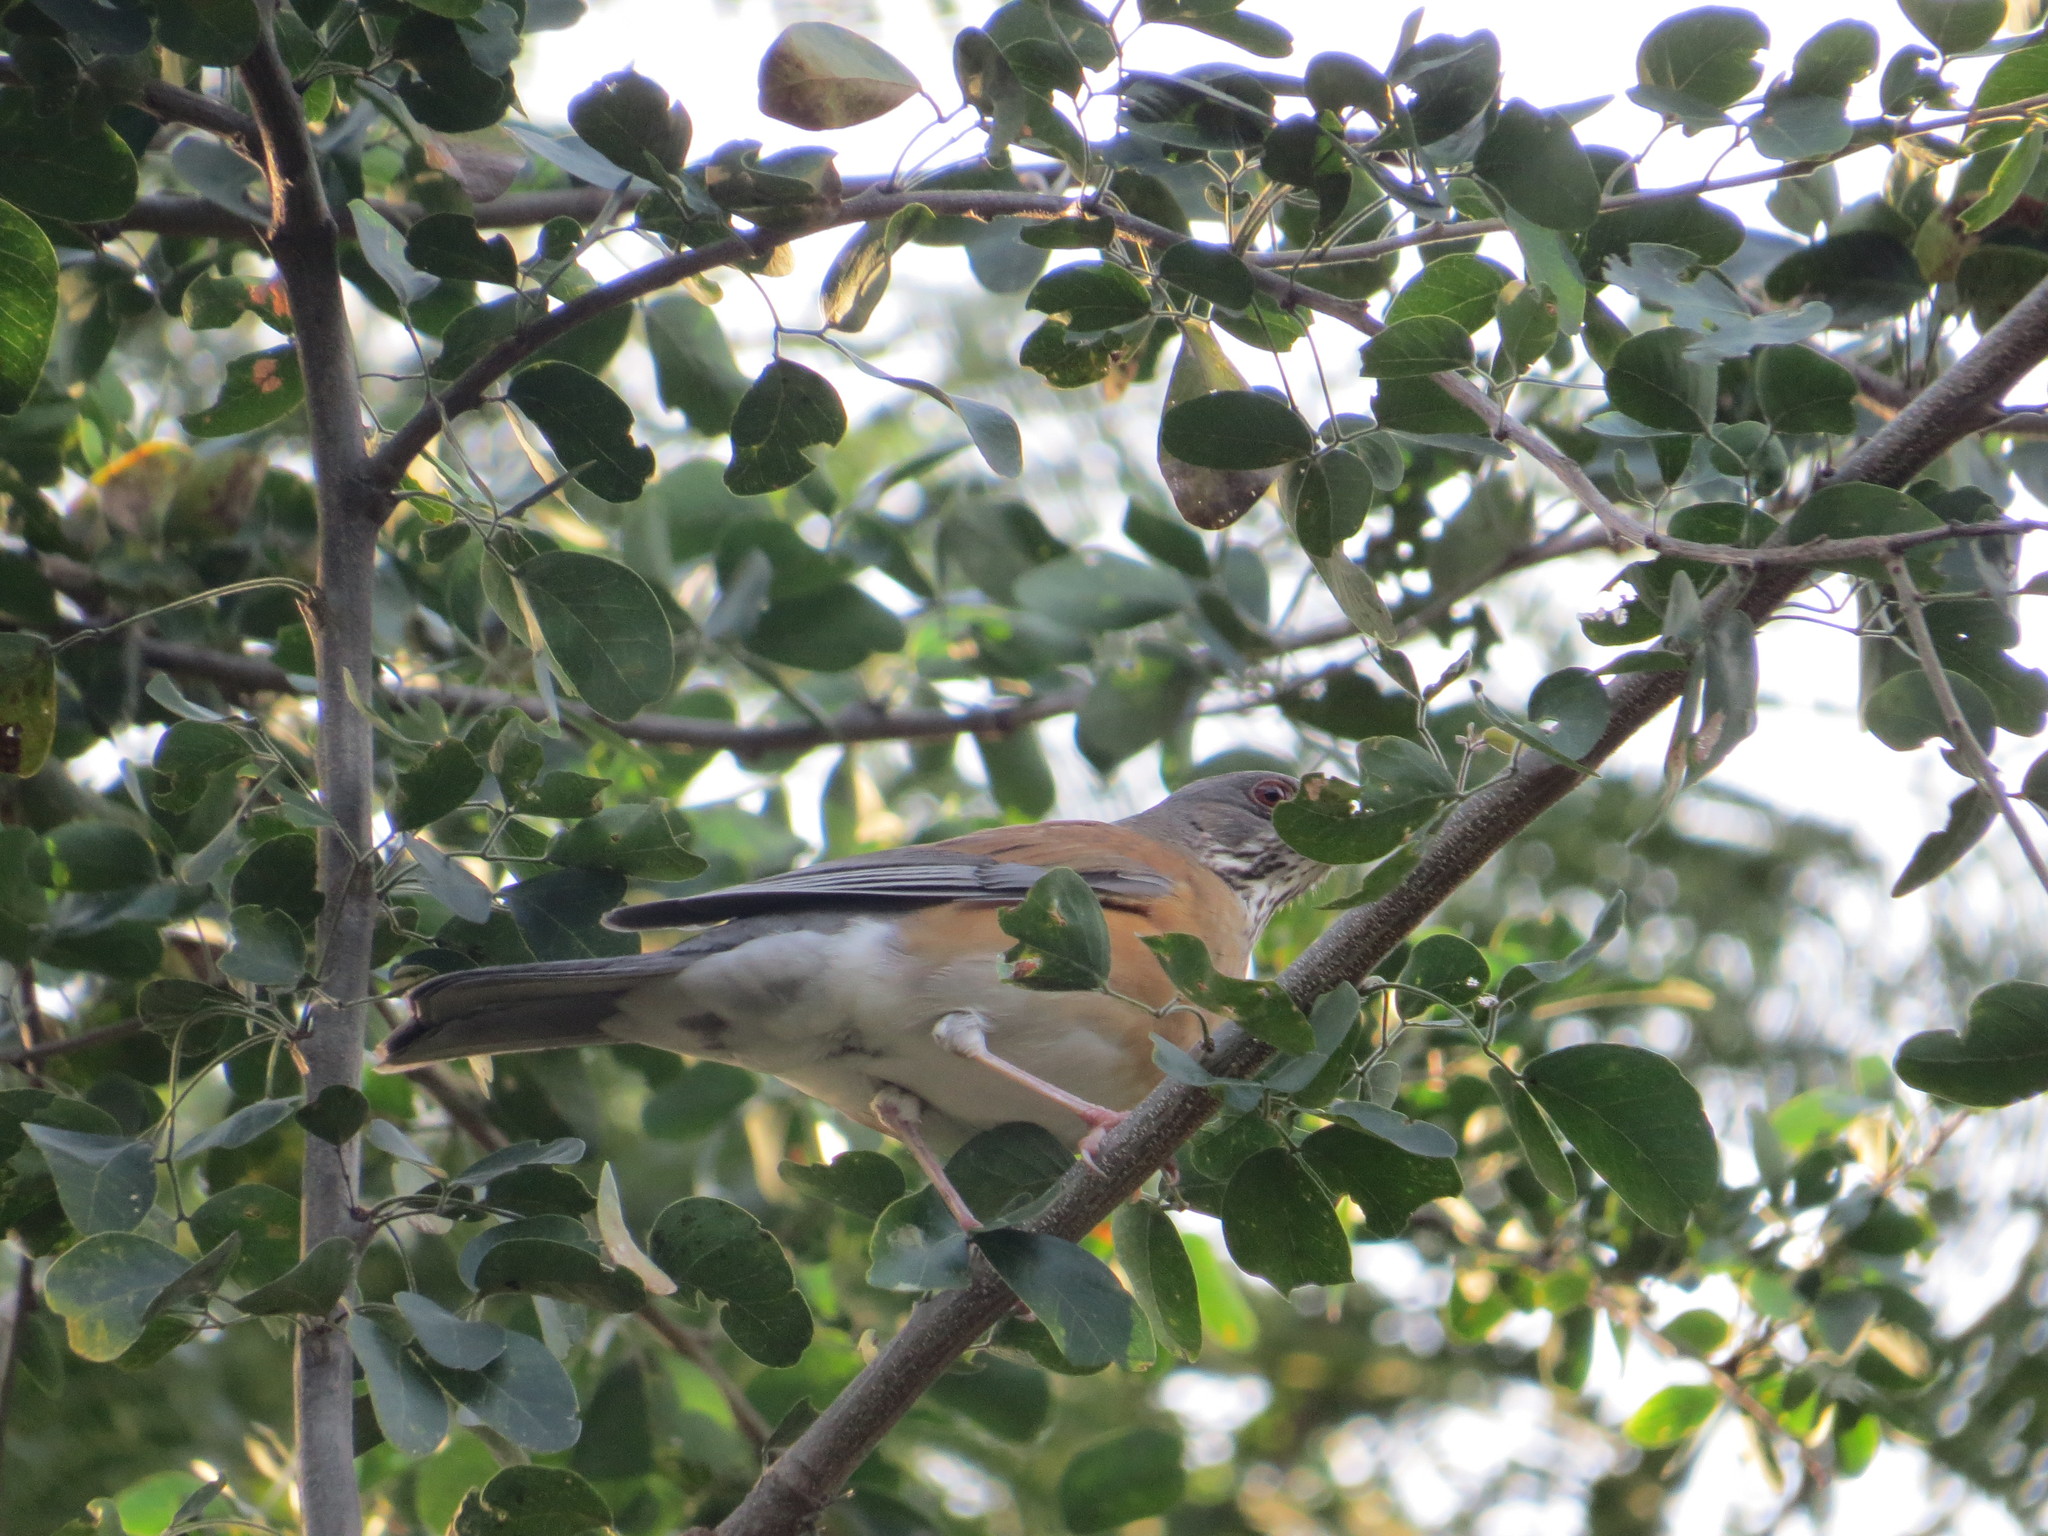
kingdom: Animalia
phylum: Chordata
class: Aves
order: Passeriformes
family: Turdidae
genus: Turdus
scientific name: Turdus rufopalliatus
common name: Rufous-backed robin
